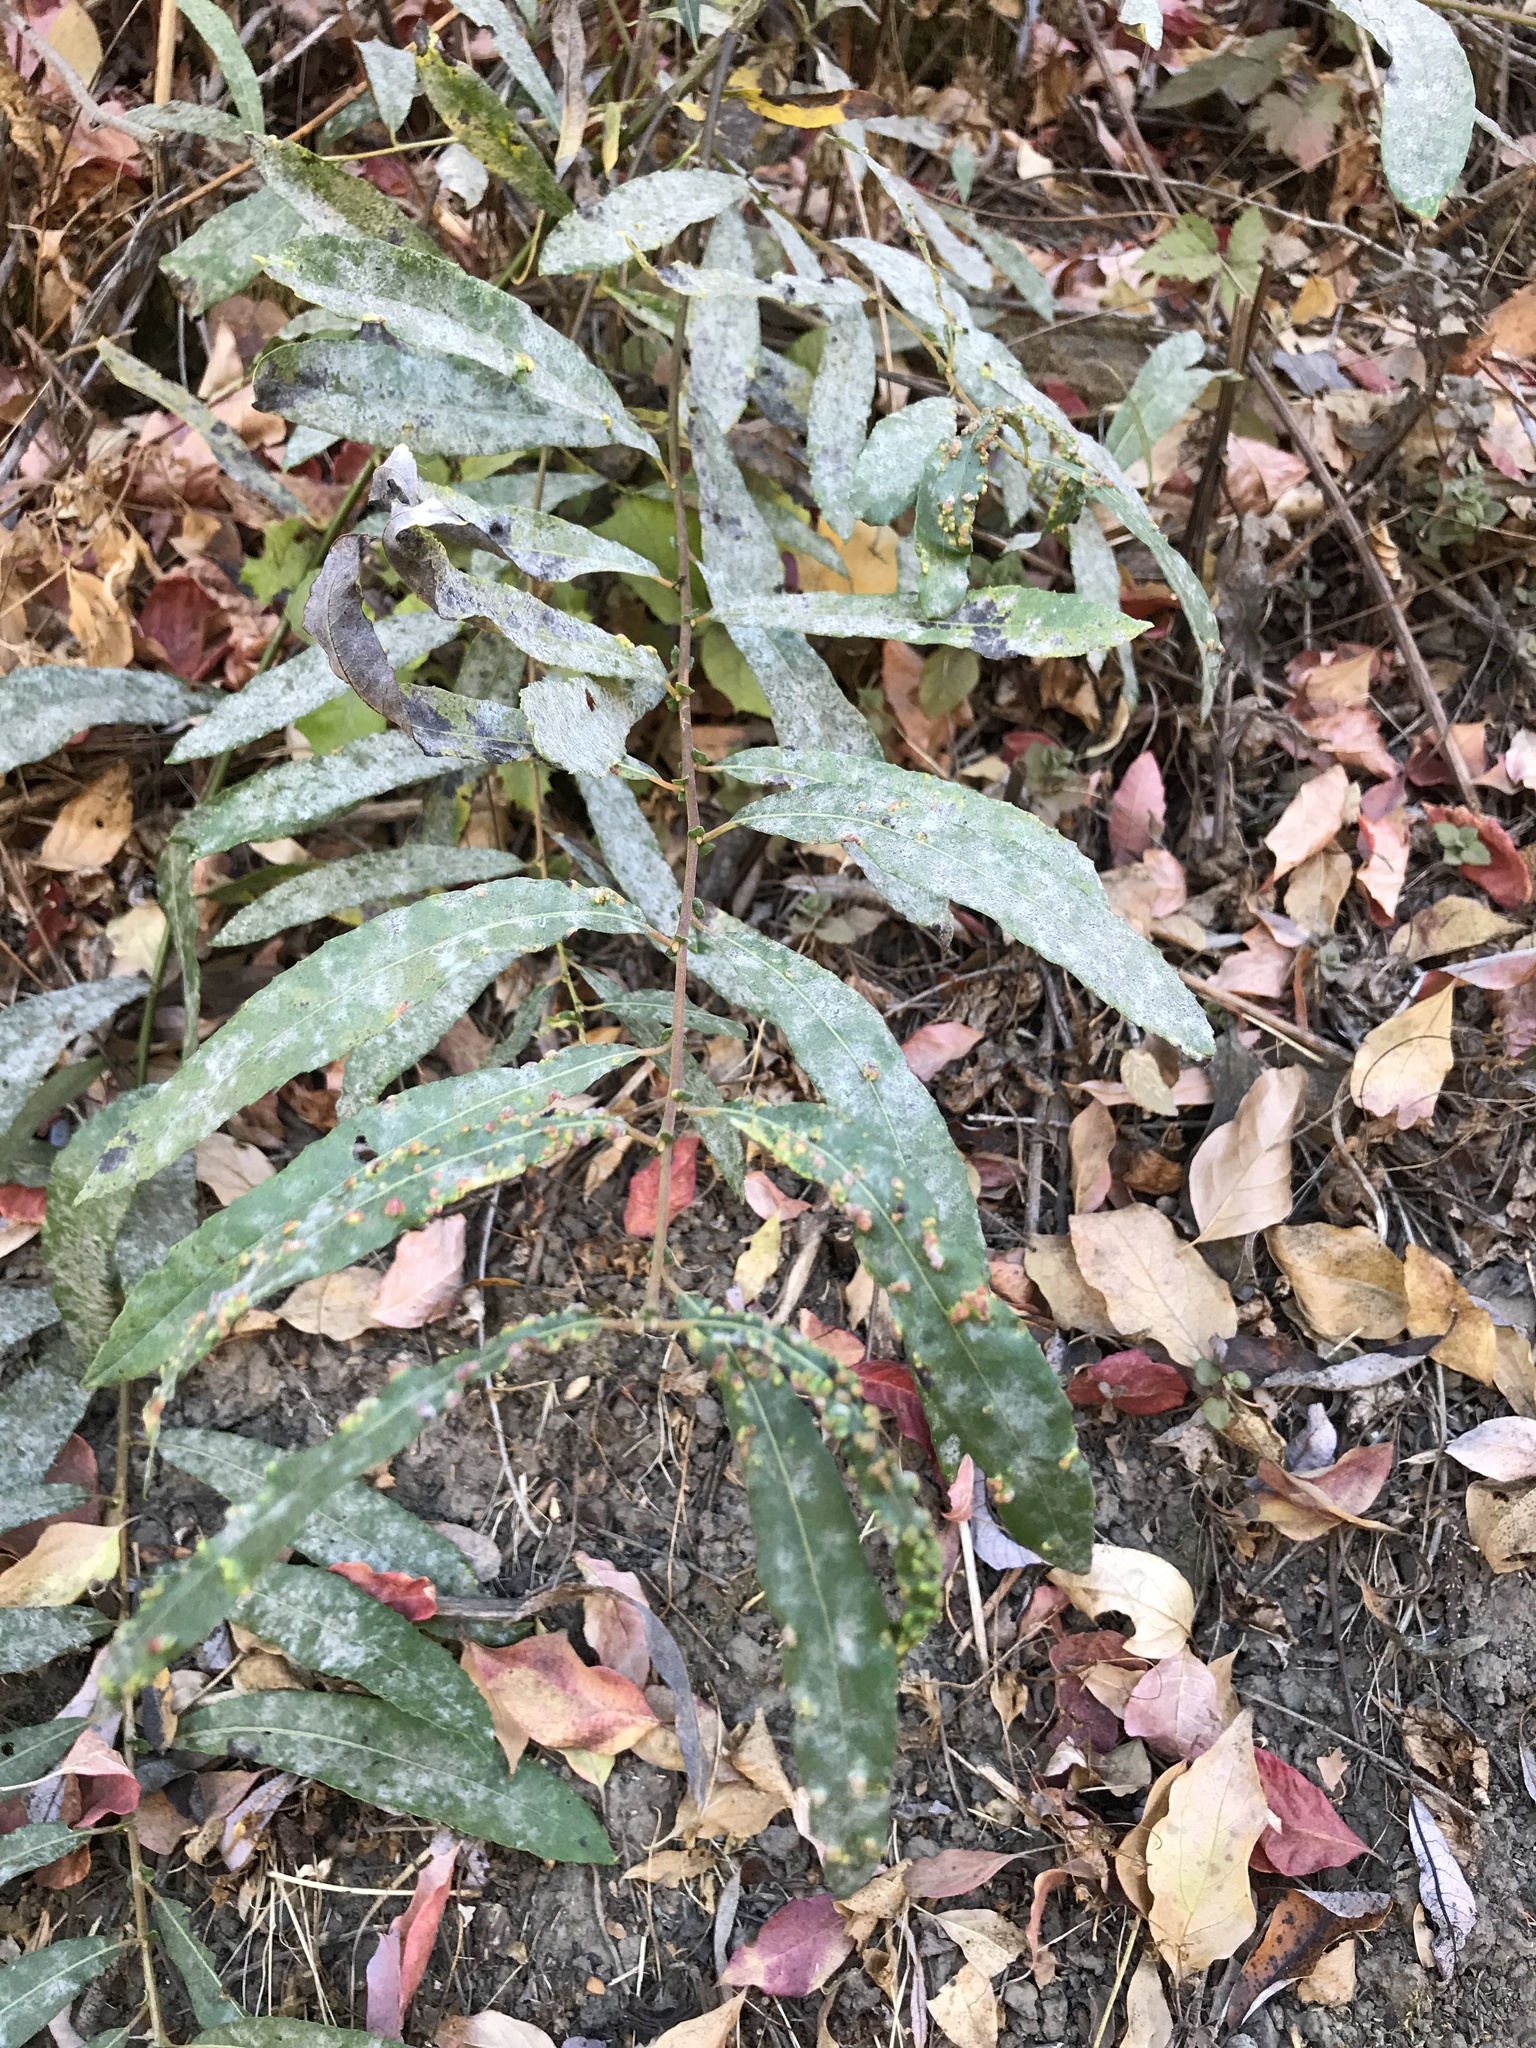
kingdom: Animalia
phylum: Arthropoda
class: Arachnida
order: Trombidiformes
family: Eriophyidae
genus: Aculus
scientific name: Aculus tetanothrix
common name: Willow bead gall mite
